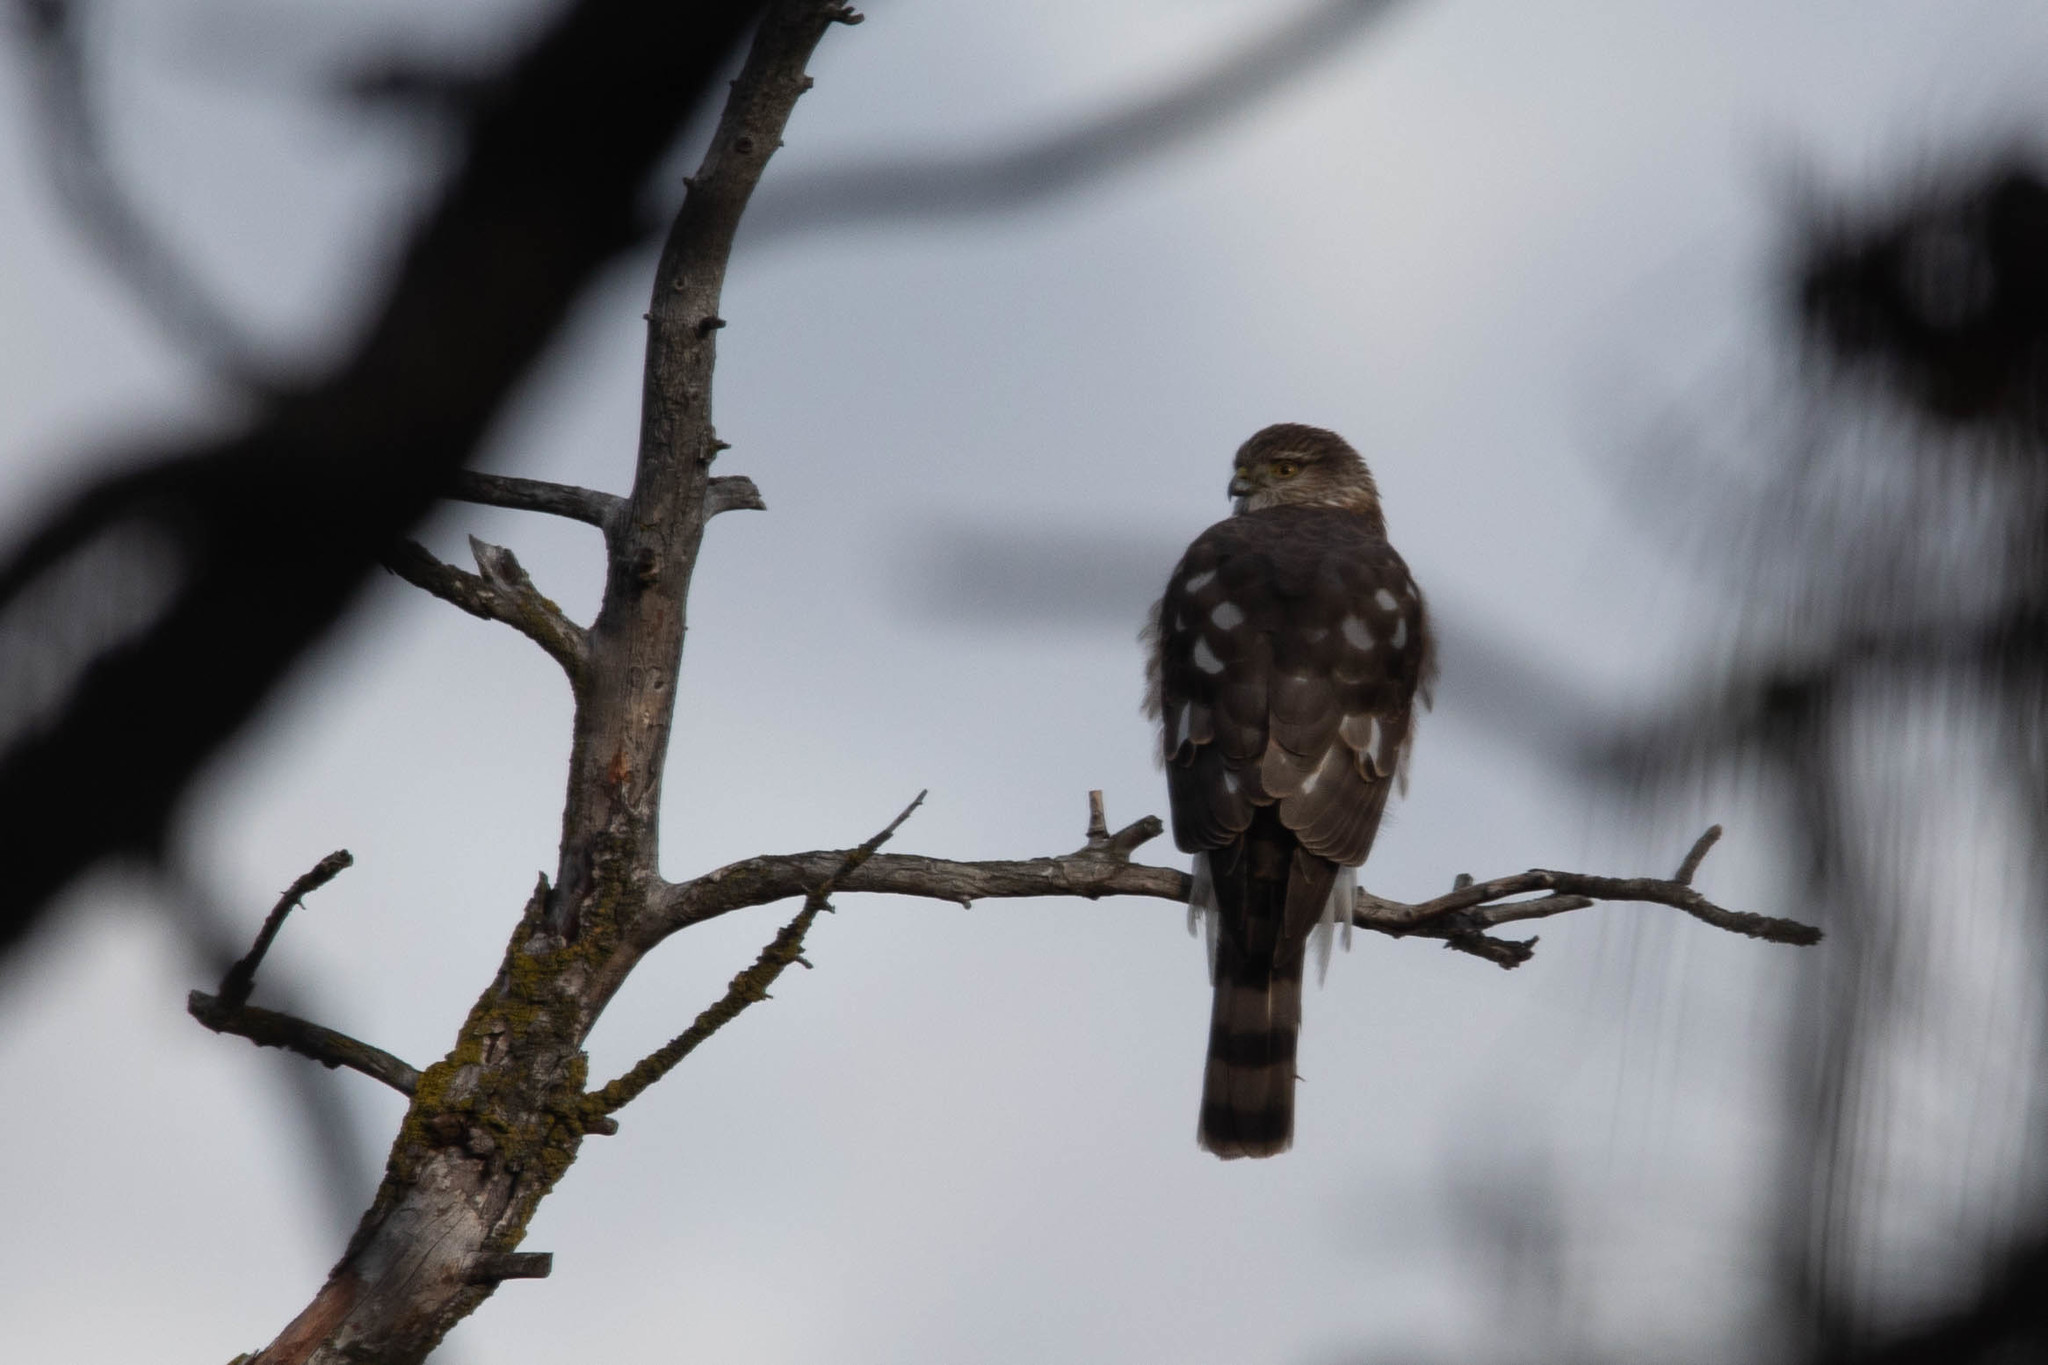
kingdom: Animalia
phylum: Chordata
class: Aves
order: Accipitriformes
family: Accipitridae
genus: Accipiter
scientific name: Accipiter striatus
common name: Sharp-shinned hawk
